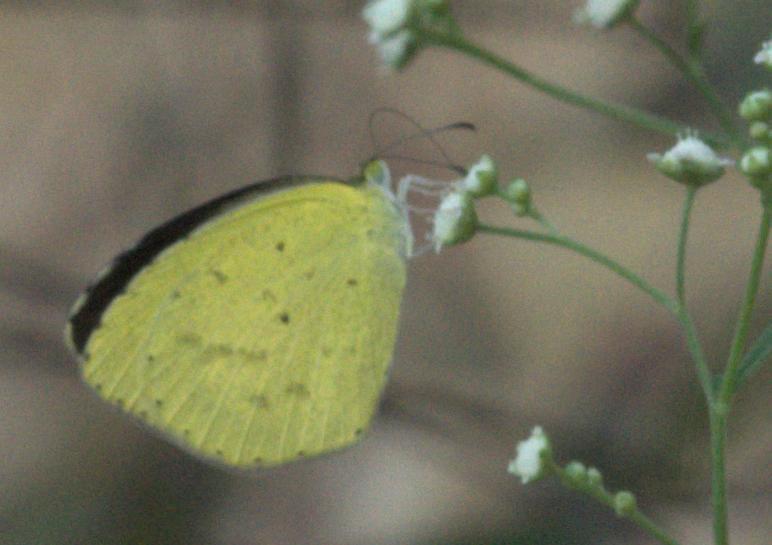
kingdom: Animalia
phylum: Arthropoda
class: Insecta
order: Lepidoptera
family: Pieridae
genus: Eurema
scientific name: Eurema brigitta
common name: Small grass yellow
